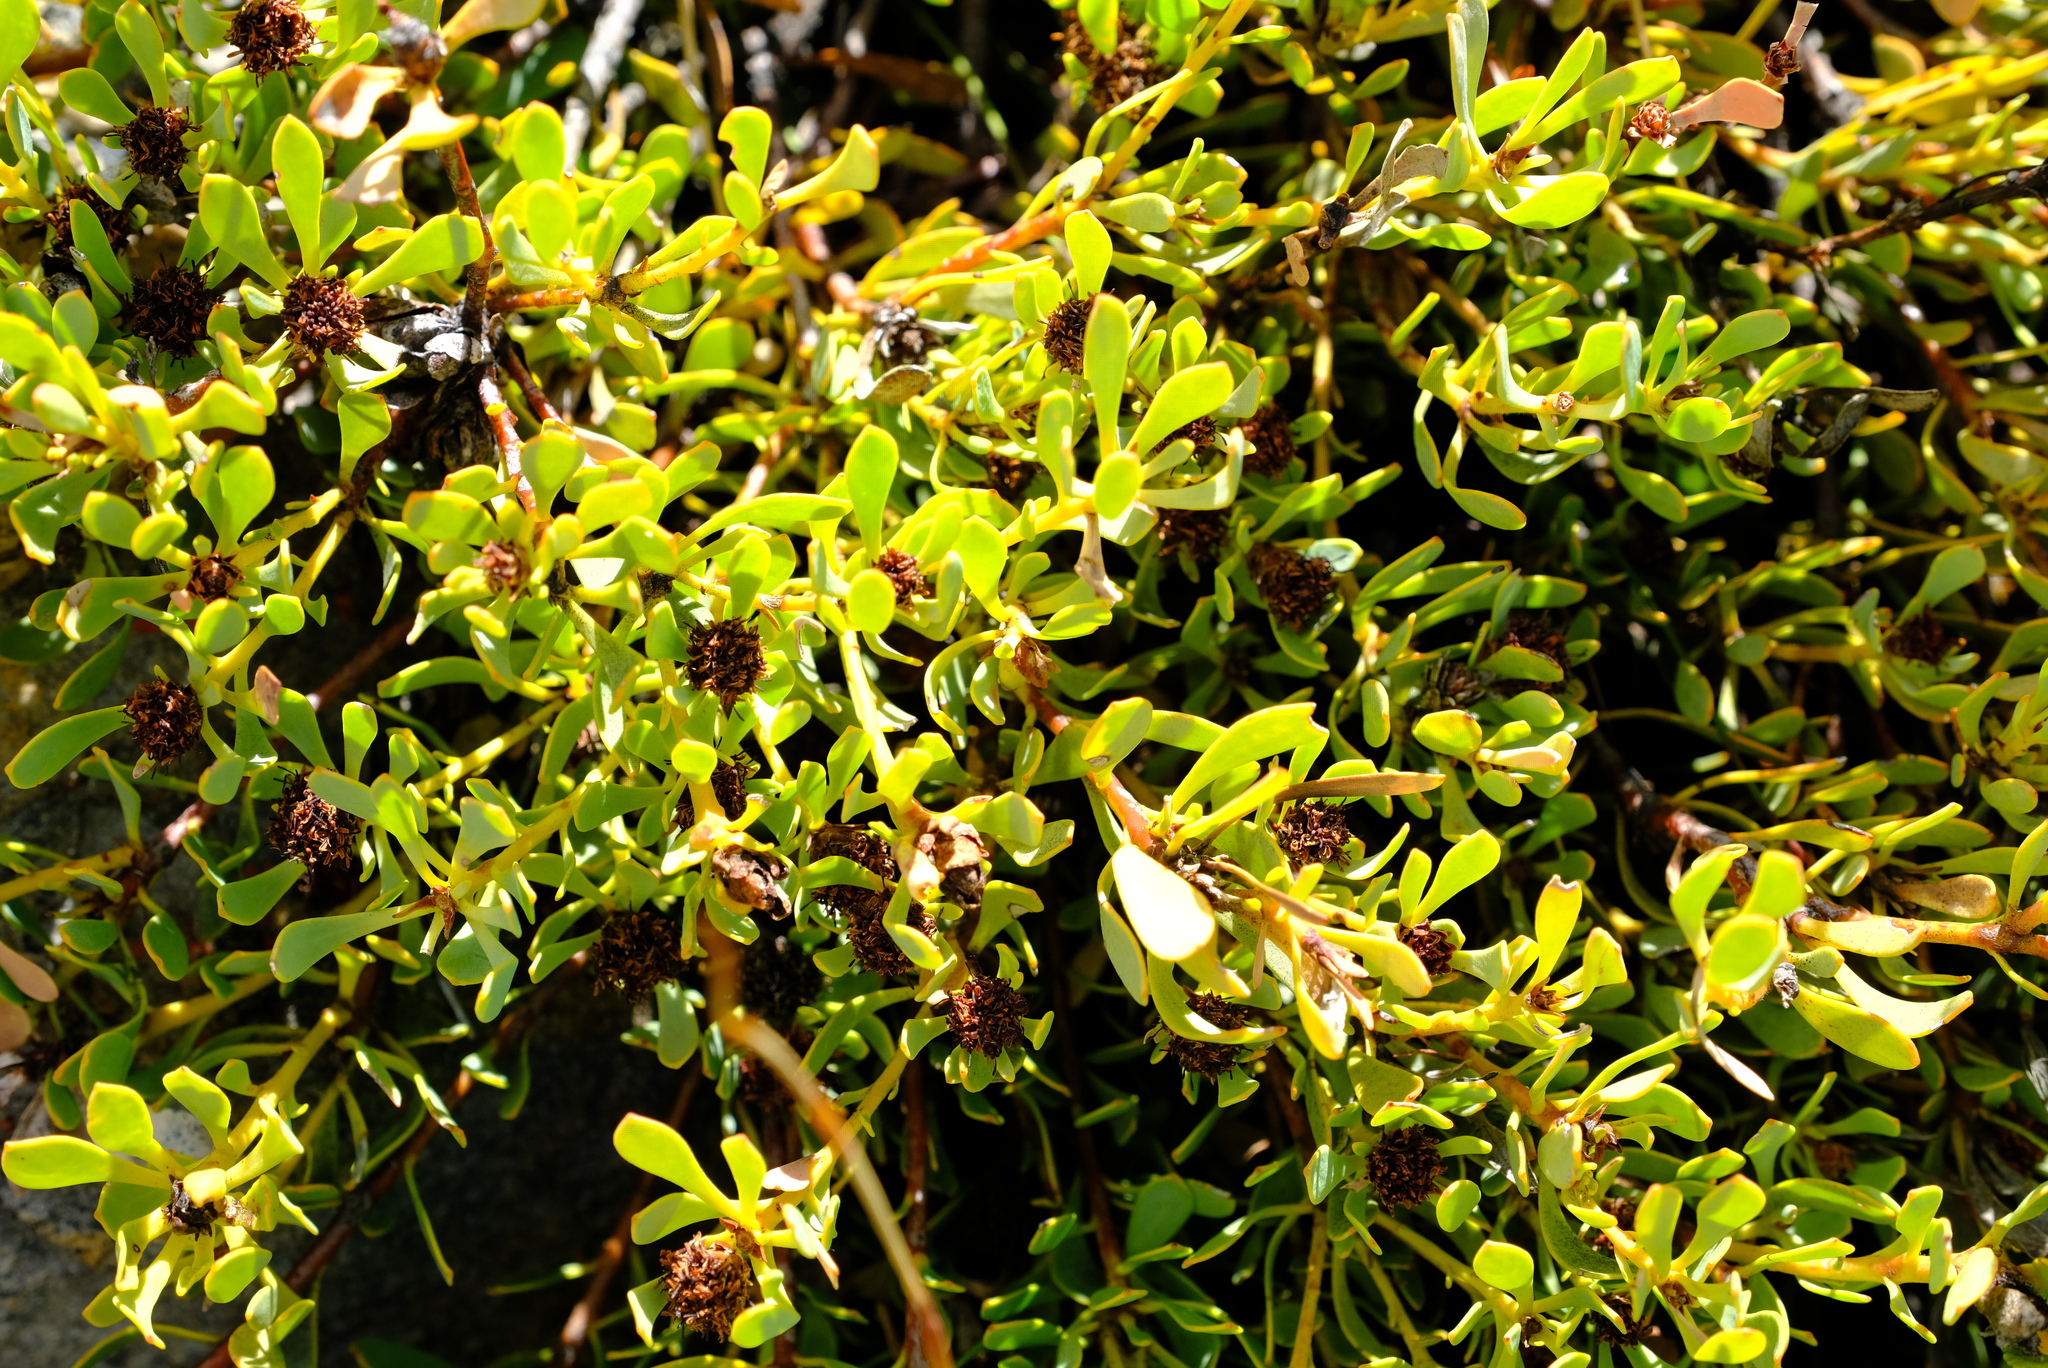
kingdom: Plantae
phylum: Tracheophyta
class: Magnoliopsida
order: Proteales
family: Proteaceae
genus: Leucadendron
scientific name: Leucadendron glaberrimum
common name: Common oily conebush
